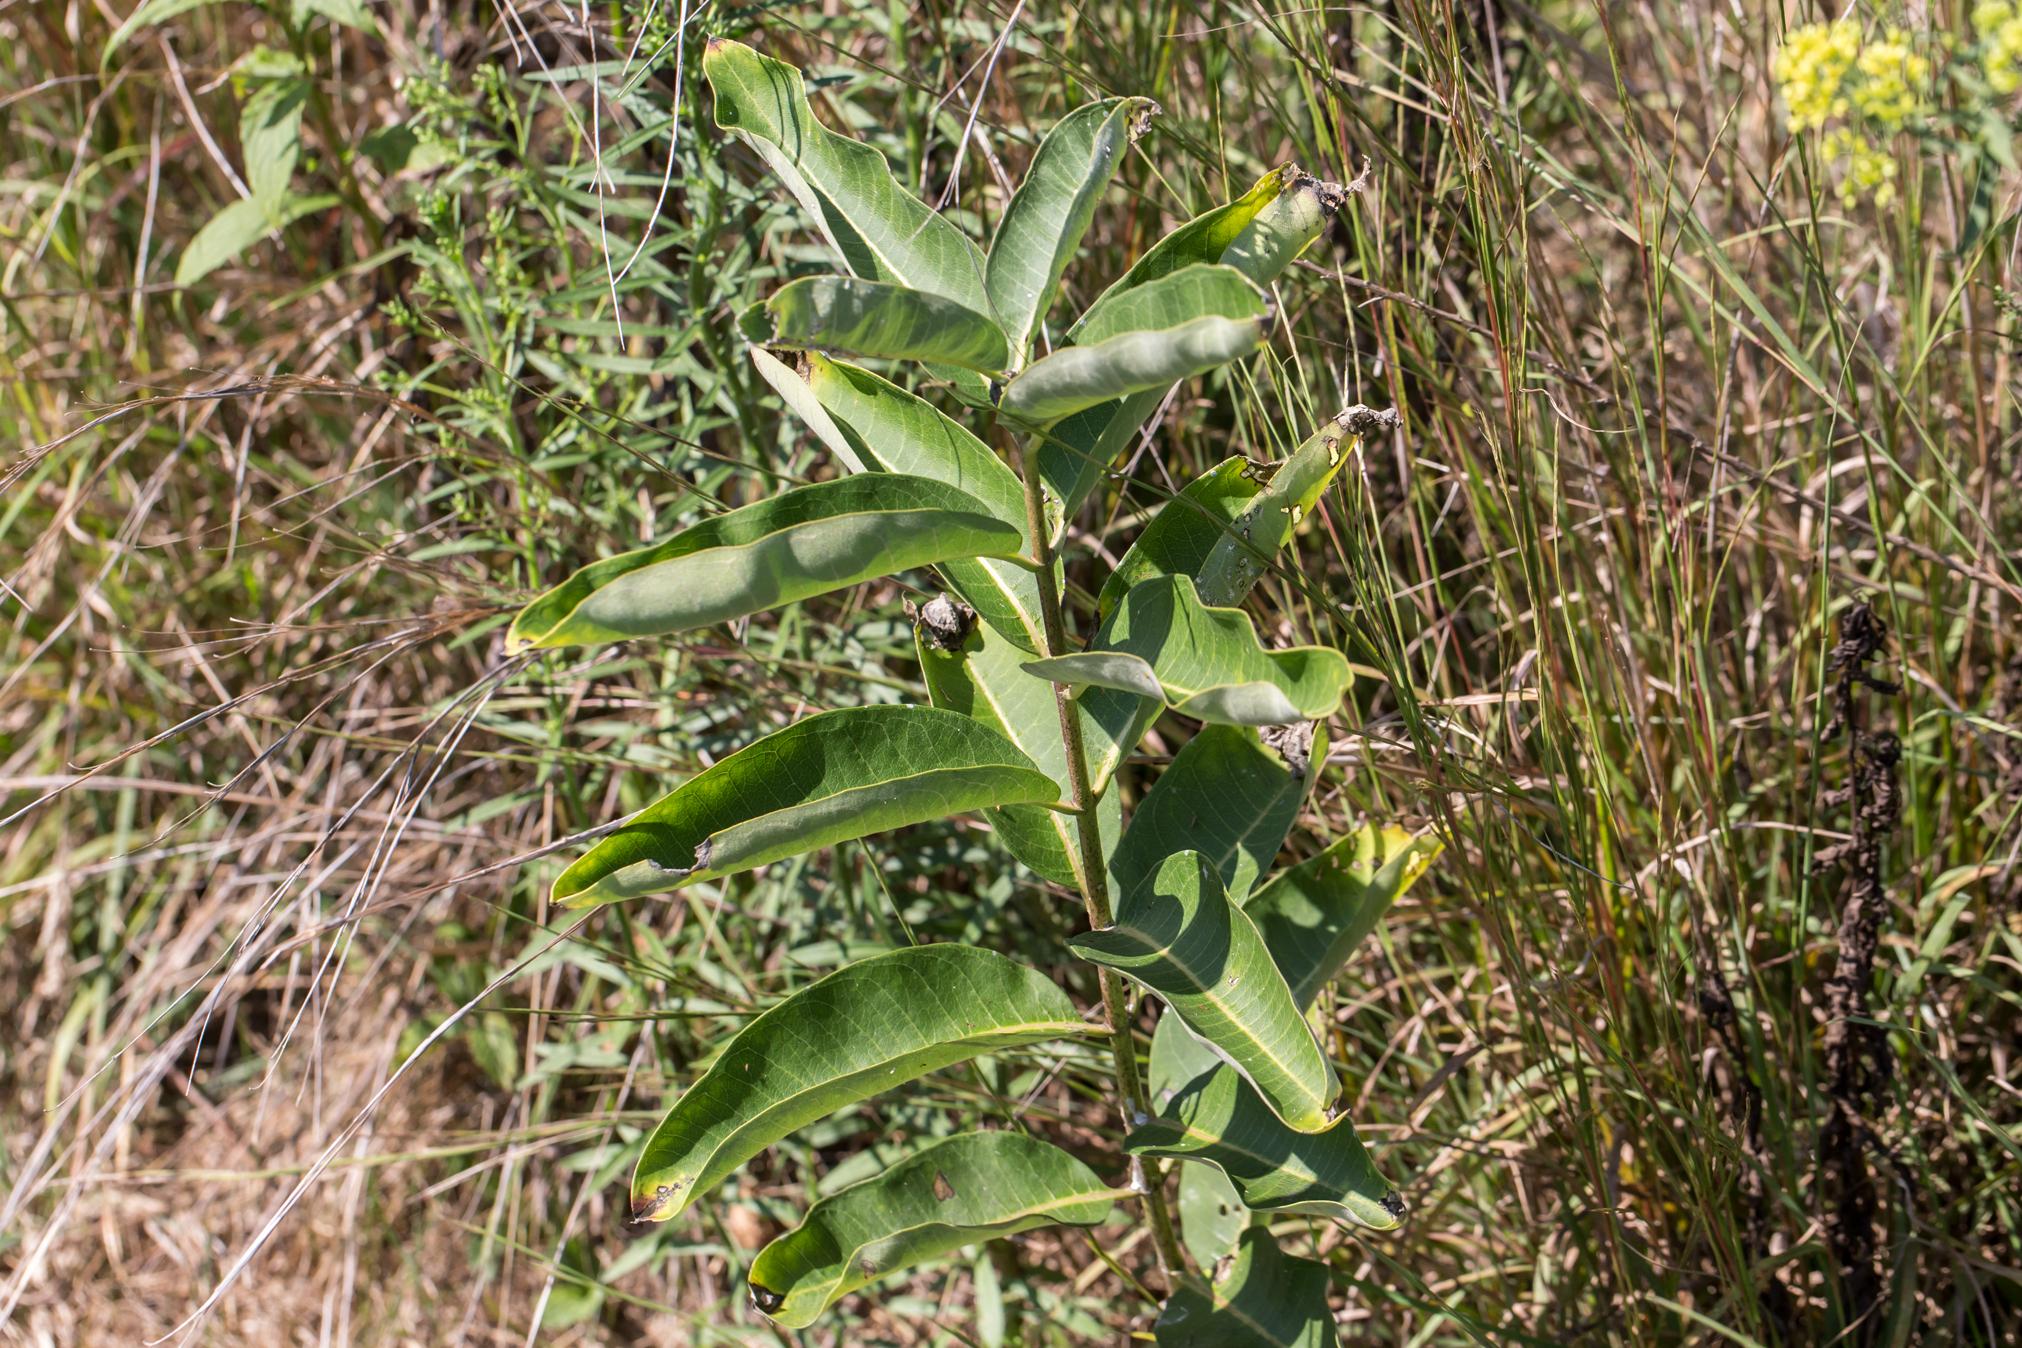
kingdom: Plantae
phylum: Tracheophyta
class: Magnoliopsida
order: Gentianales
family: Apocynaceae
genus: Asclepias
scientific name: Asclepias syriaca
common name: Common milkweed
